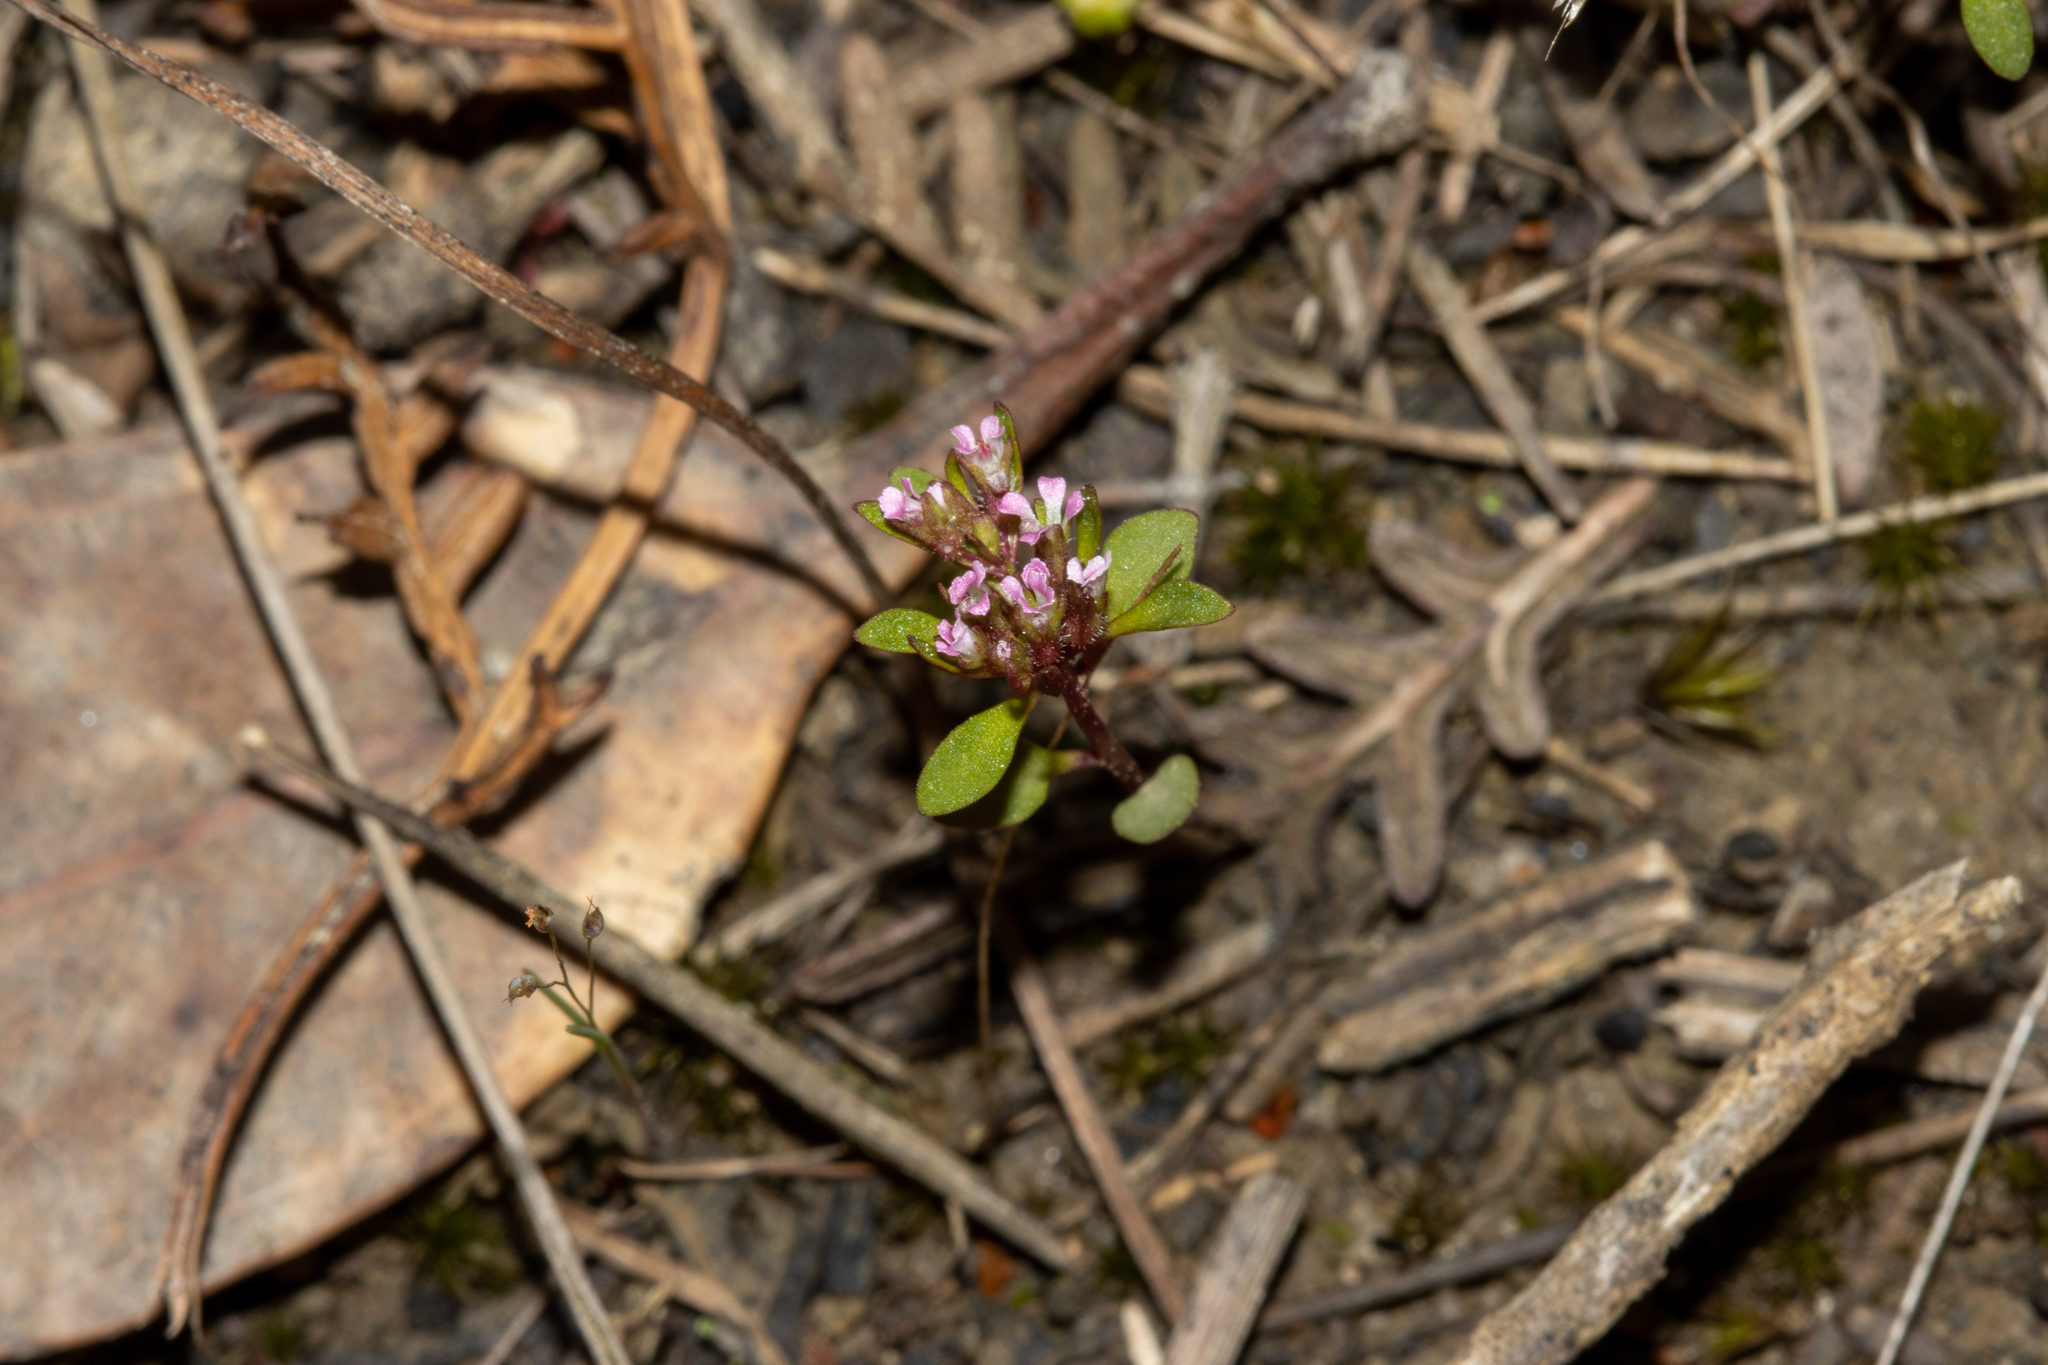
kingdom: Plantae
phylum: Tracheophyta
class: Magnoliopsida
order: Asterales
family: Stylidiaceae
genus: Levenhookia
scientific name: Levenhookia pusilla
